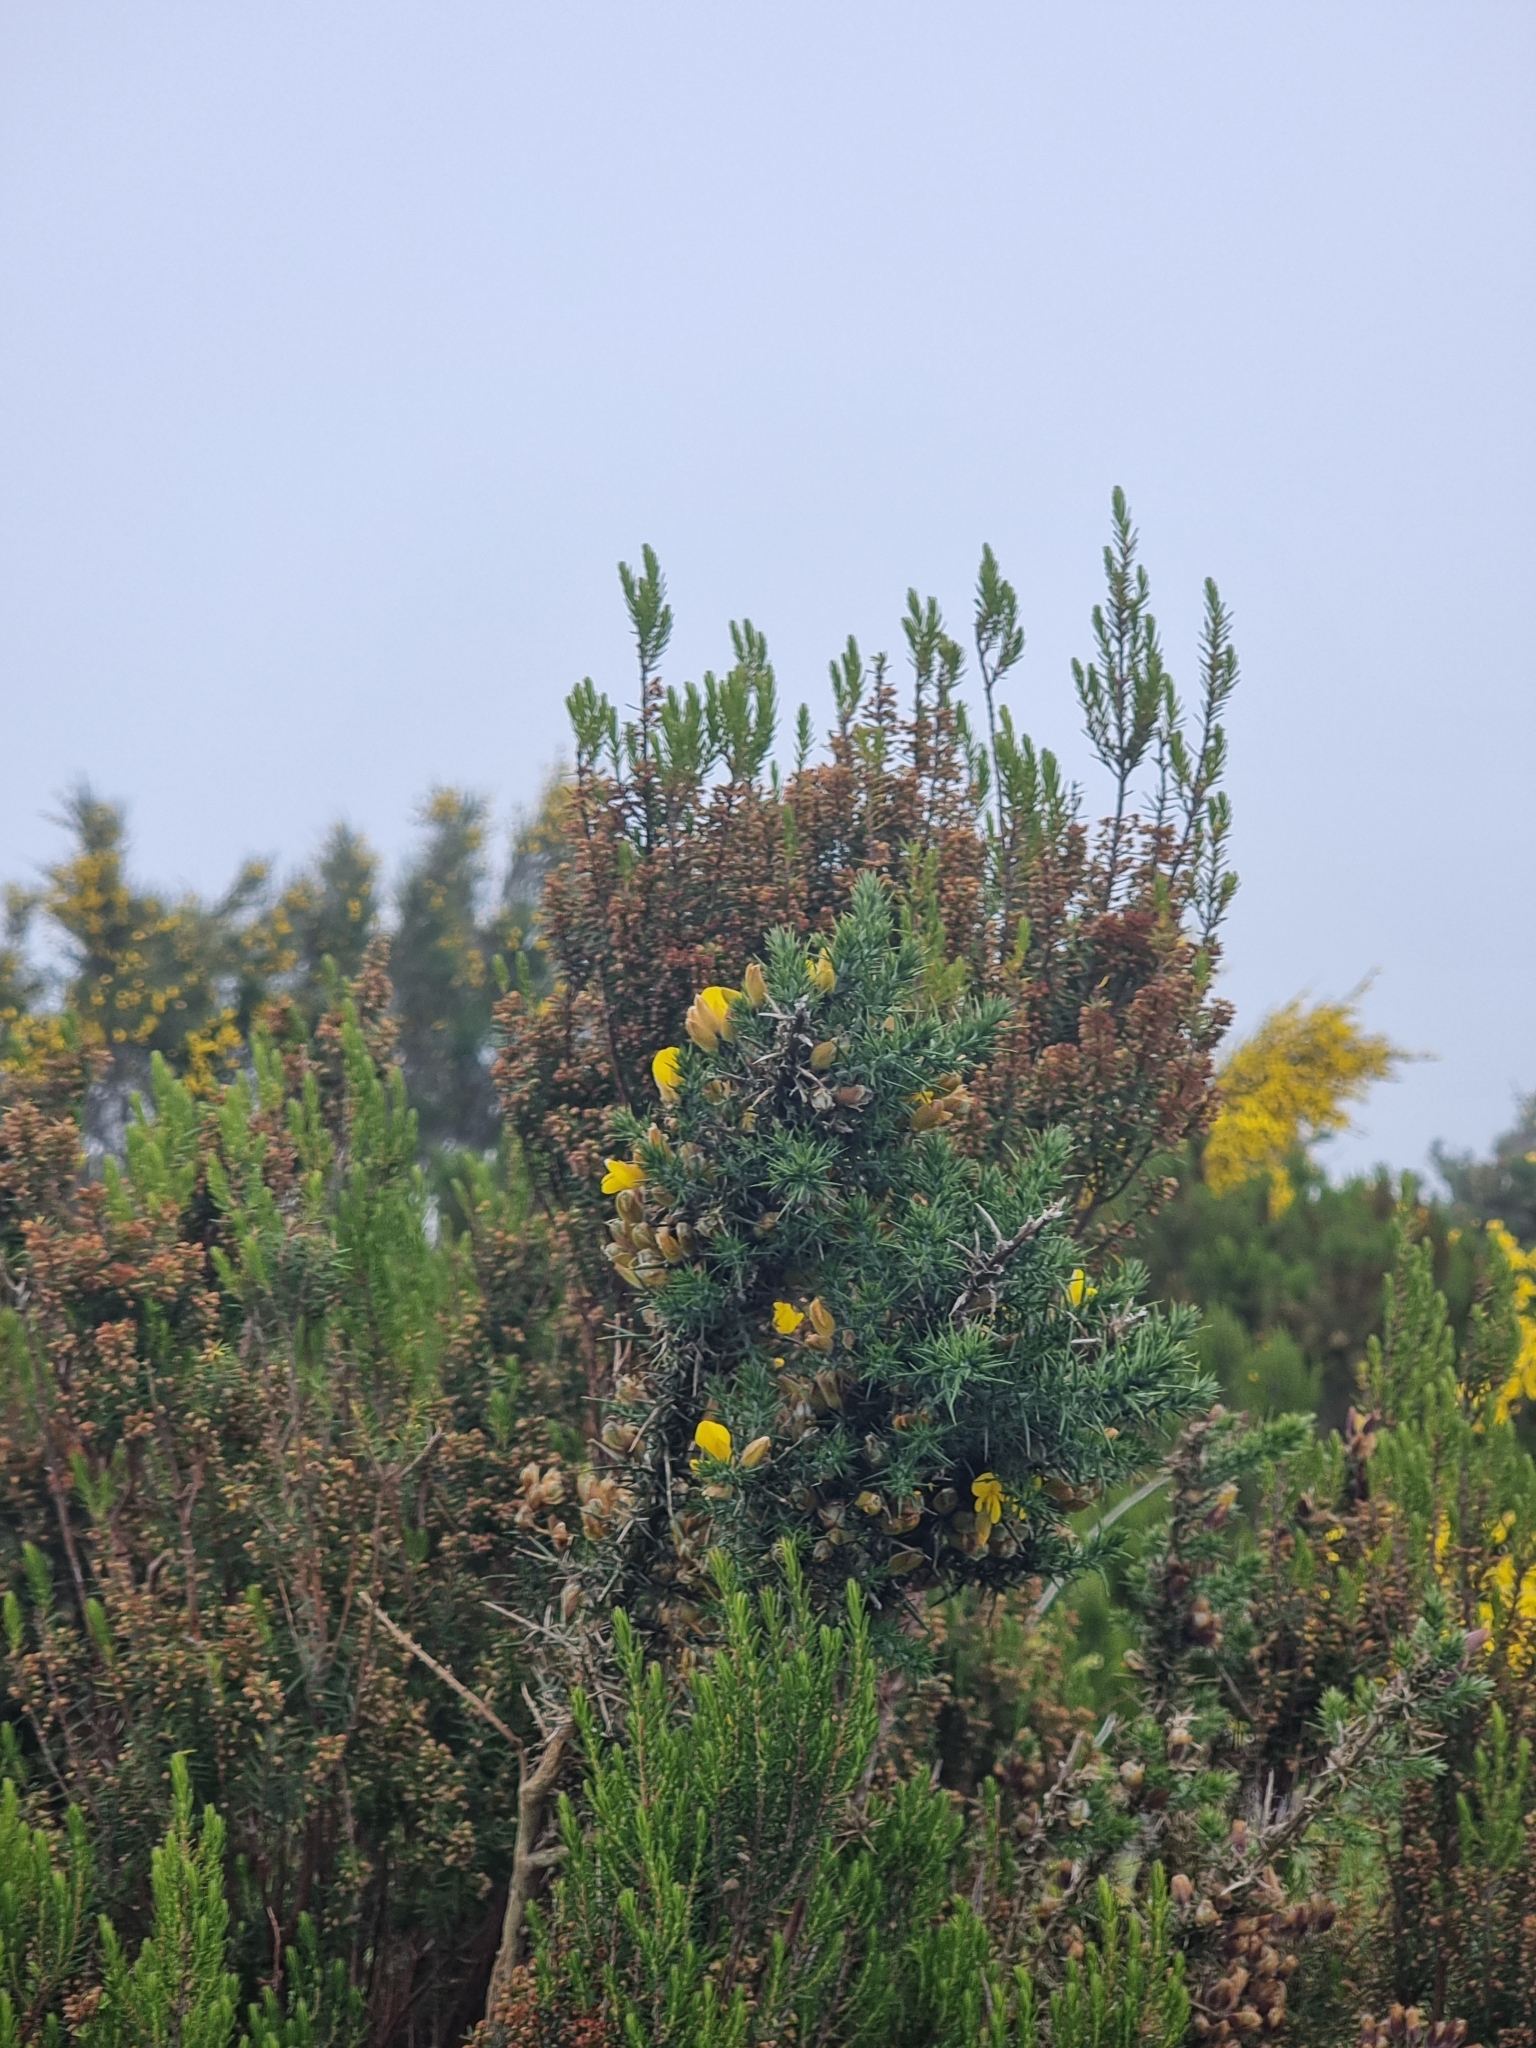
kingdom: Plantae
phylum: Tracheophyta
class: Magnoliopsida
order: Fabales
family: Fabaceae
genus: Ulex
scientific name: Ulex europaeus
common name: Common gorse
